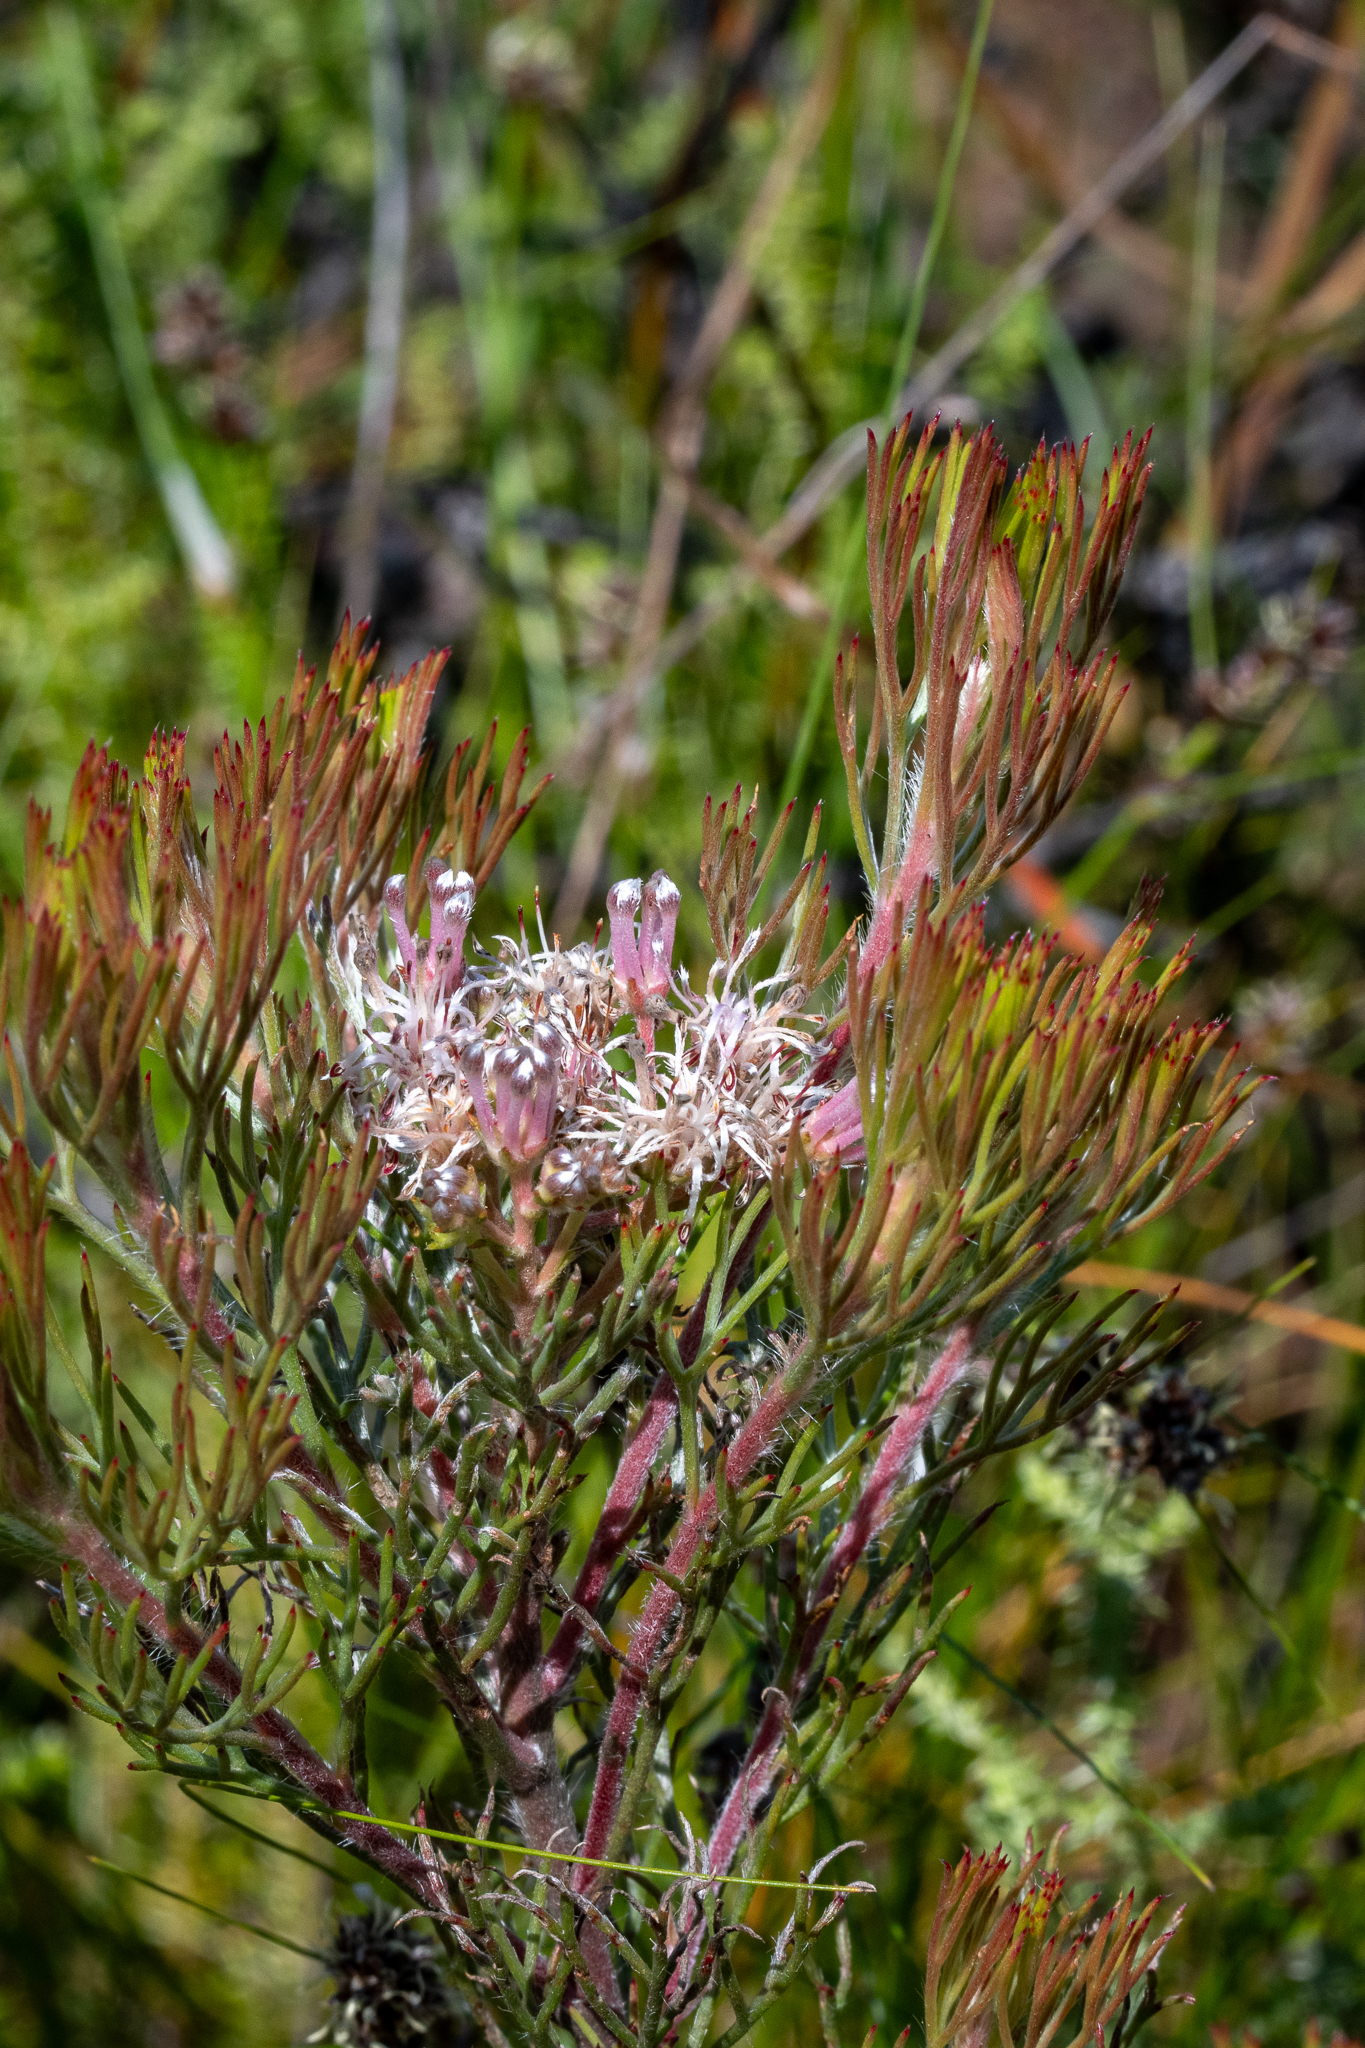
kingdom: Plantae
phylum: Tracheophyta
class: Magnoliopsida
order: Proteales
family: Proteaceae
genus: Serruria
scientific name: Serruria fasciflora
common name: Common pin spiderhead
